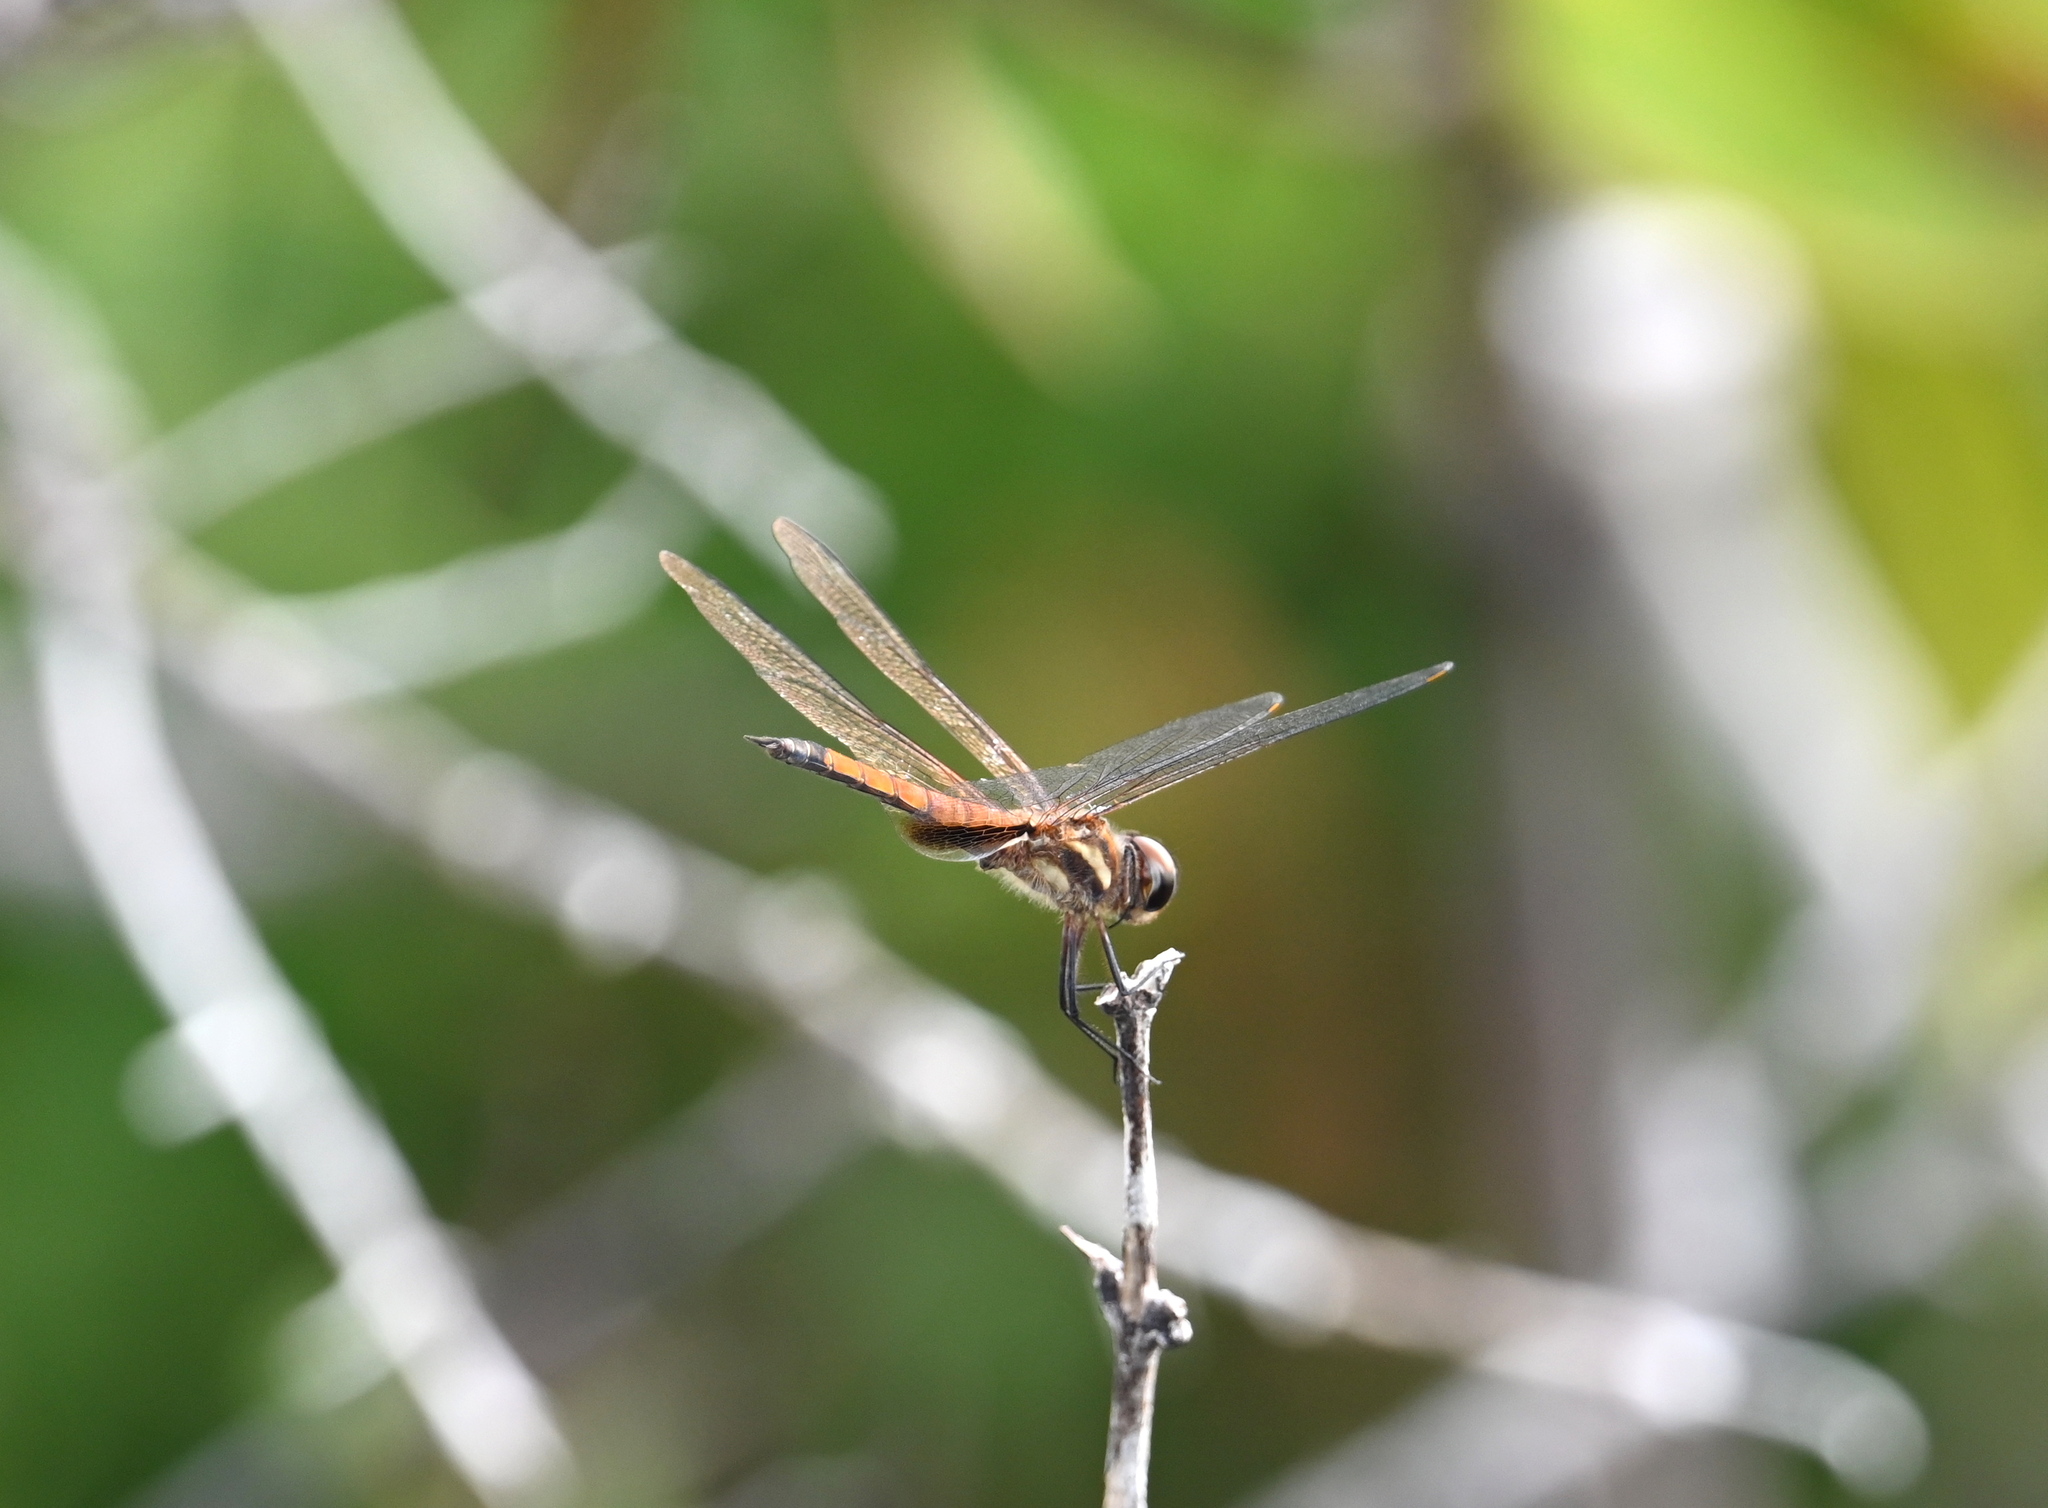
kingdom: Animalia
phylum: Arthropoda
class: Insecta
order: Odonata
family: Libellulidae
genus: Tramea
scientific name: Tramea darwini
